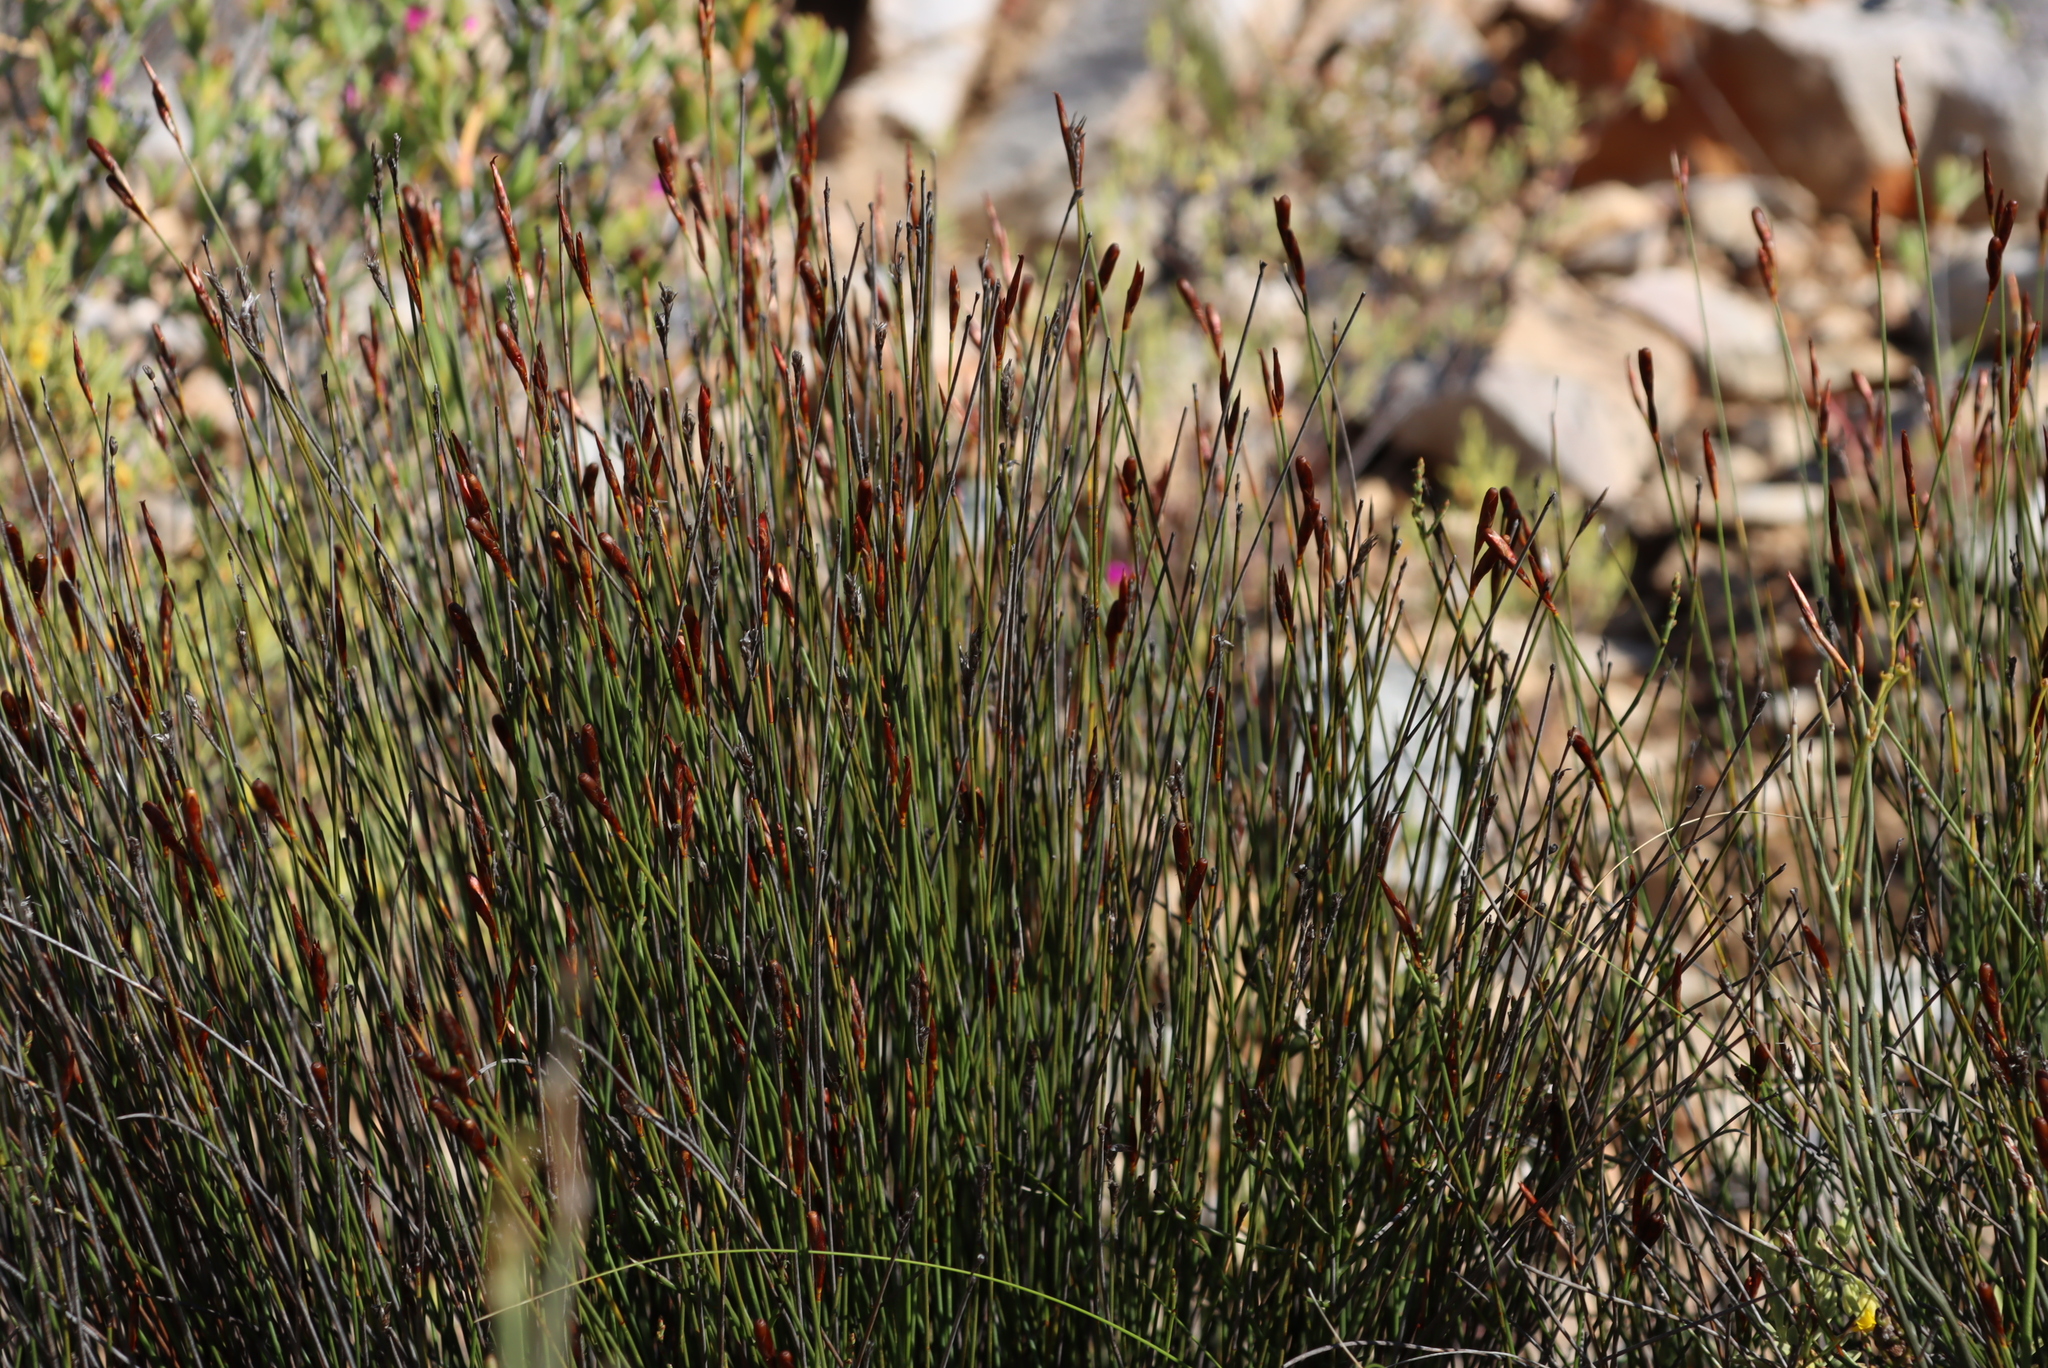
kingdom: Plantae
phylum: Tracheophyta
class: Liliopsida
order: Poales
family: Restionaceae
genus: Hypodiscus
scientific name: Hypodiscus striatus
